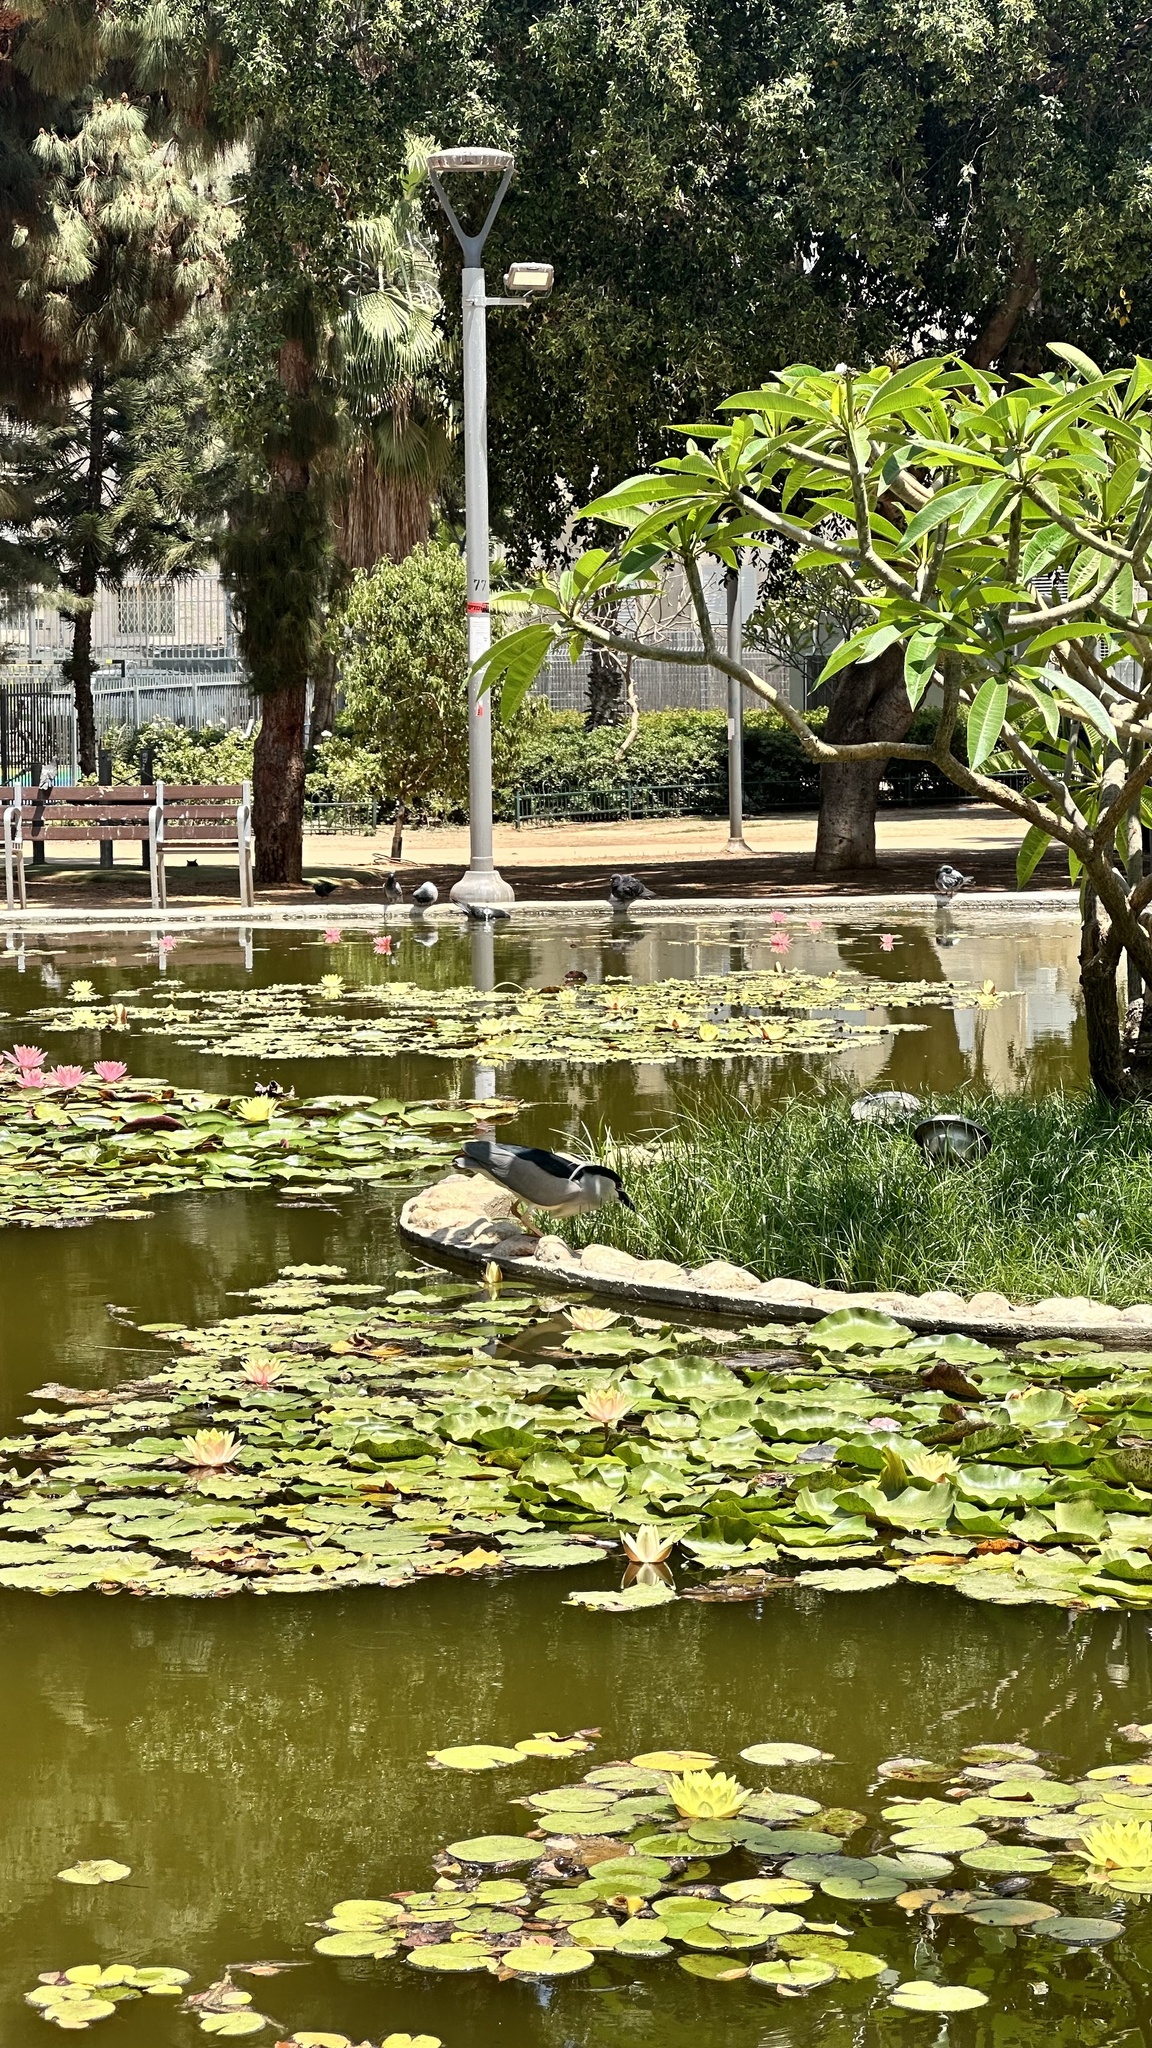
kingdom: Animalia
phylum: Chordata
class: Aves
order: Pelecaniformes
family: Ardeidae
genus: Nycticorax
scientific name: Nycticorax nycticorax
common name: Black-crowned night heron
